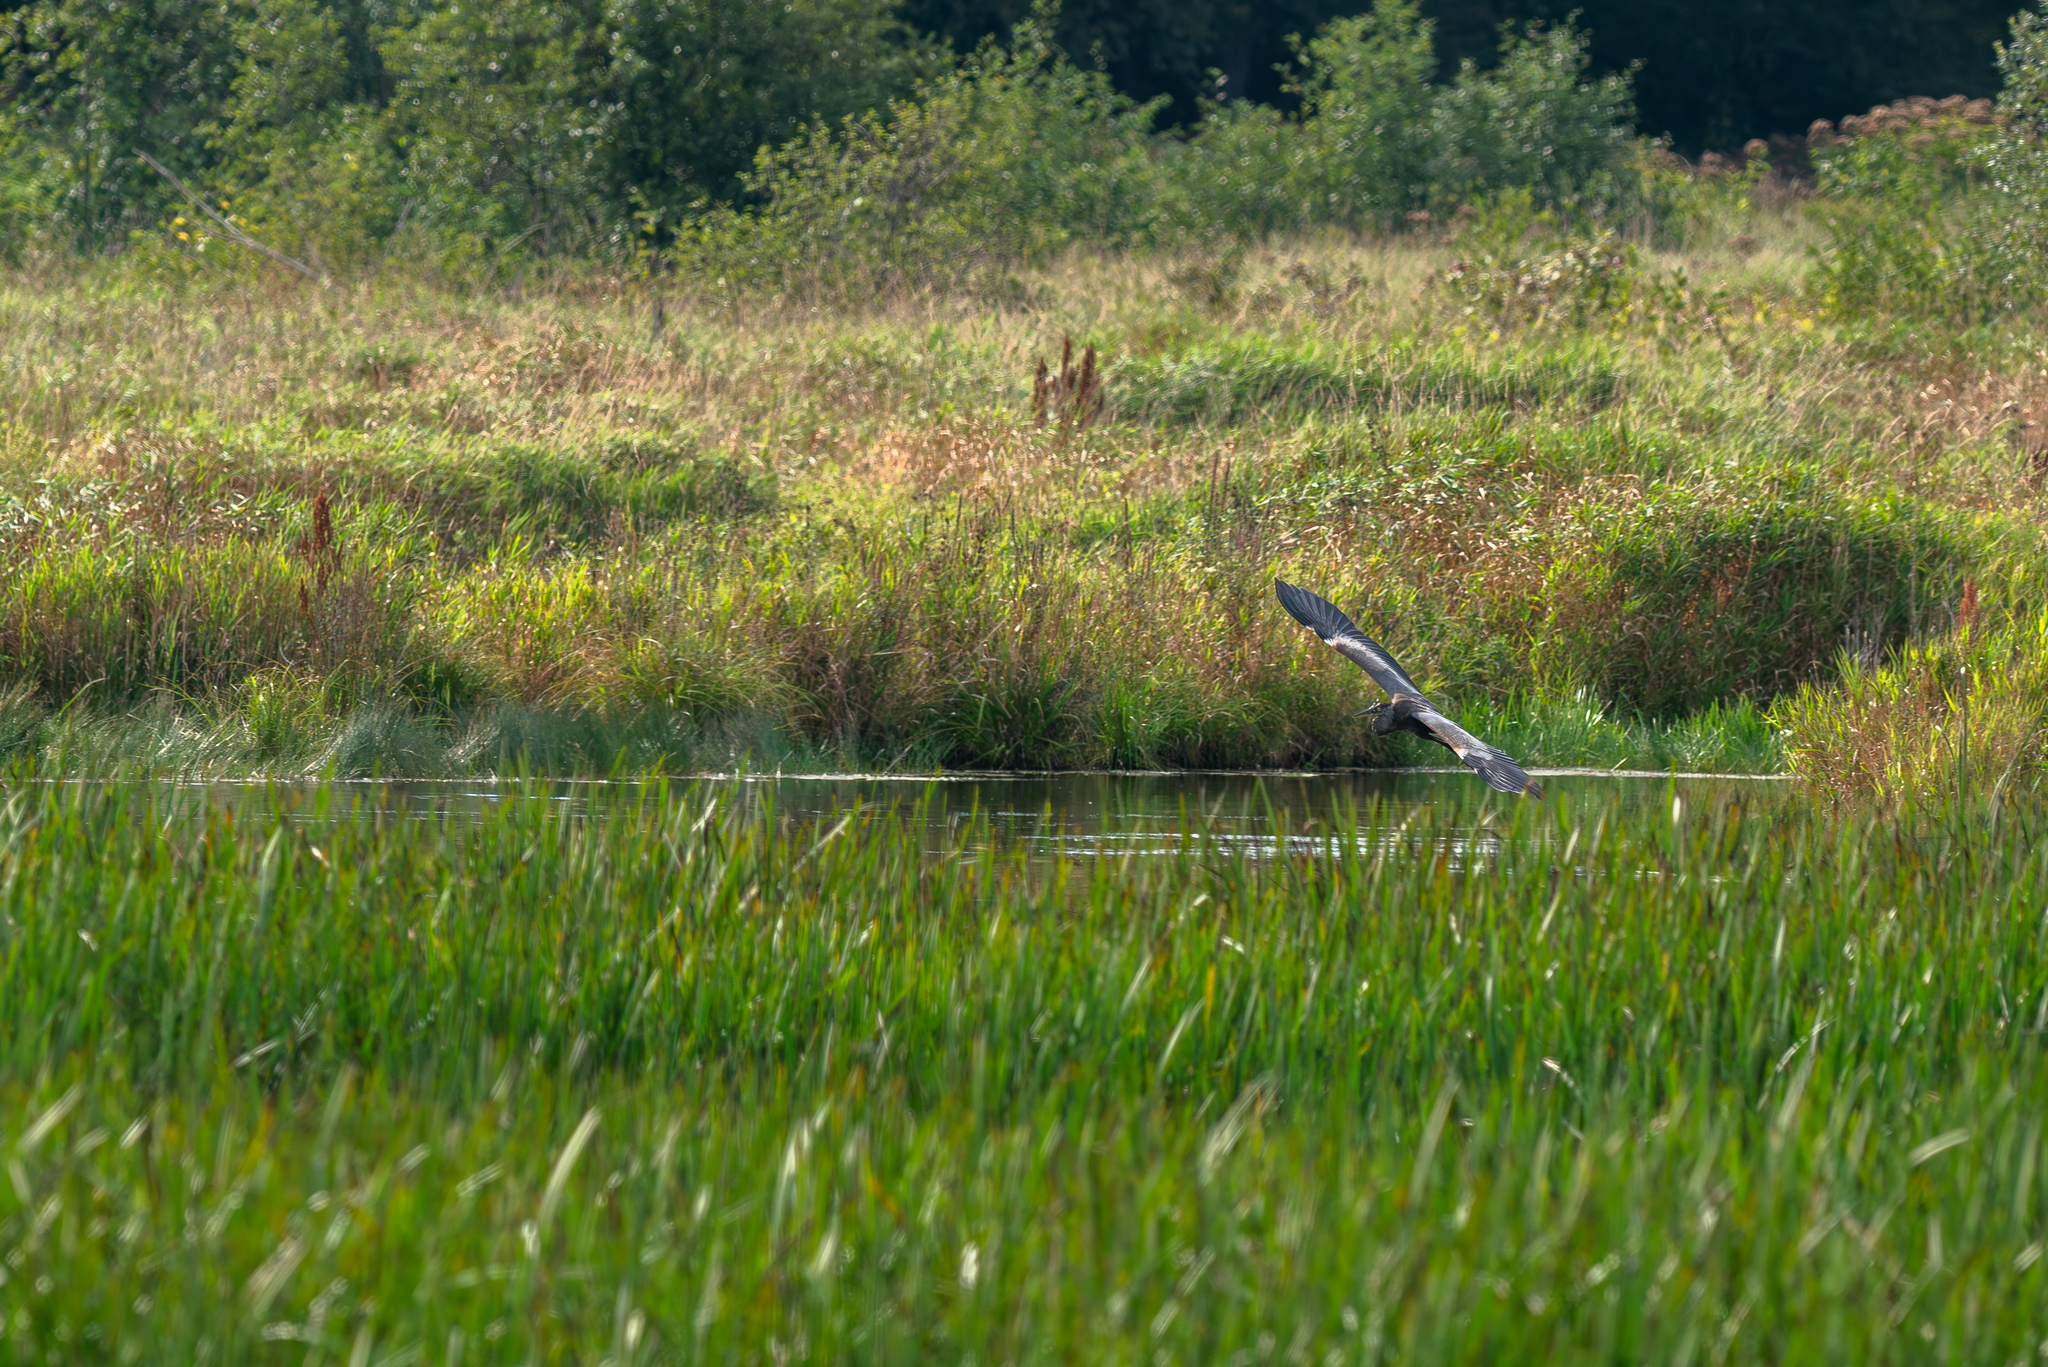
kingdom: Animalia
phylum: Chordata
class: Aves
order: Pelecaniformes
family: Ardeidae
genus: Ardea
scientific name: Ardea herodias
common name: Great blue heron
